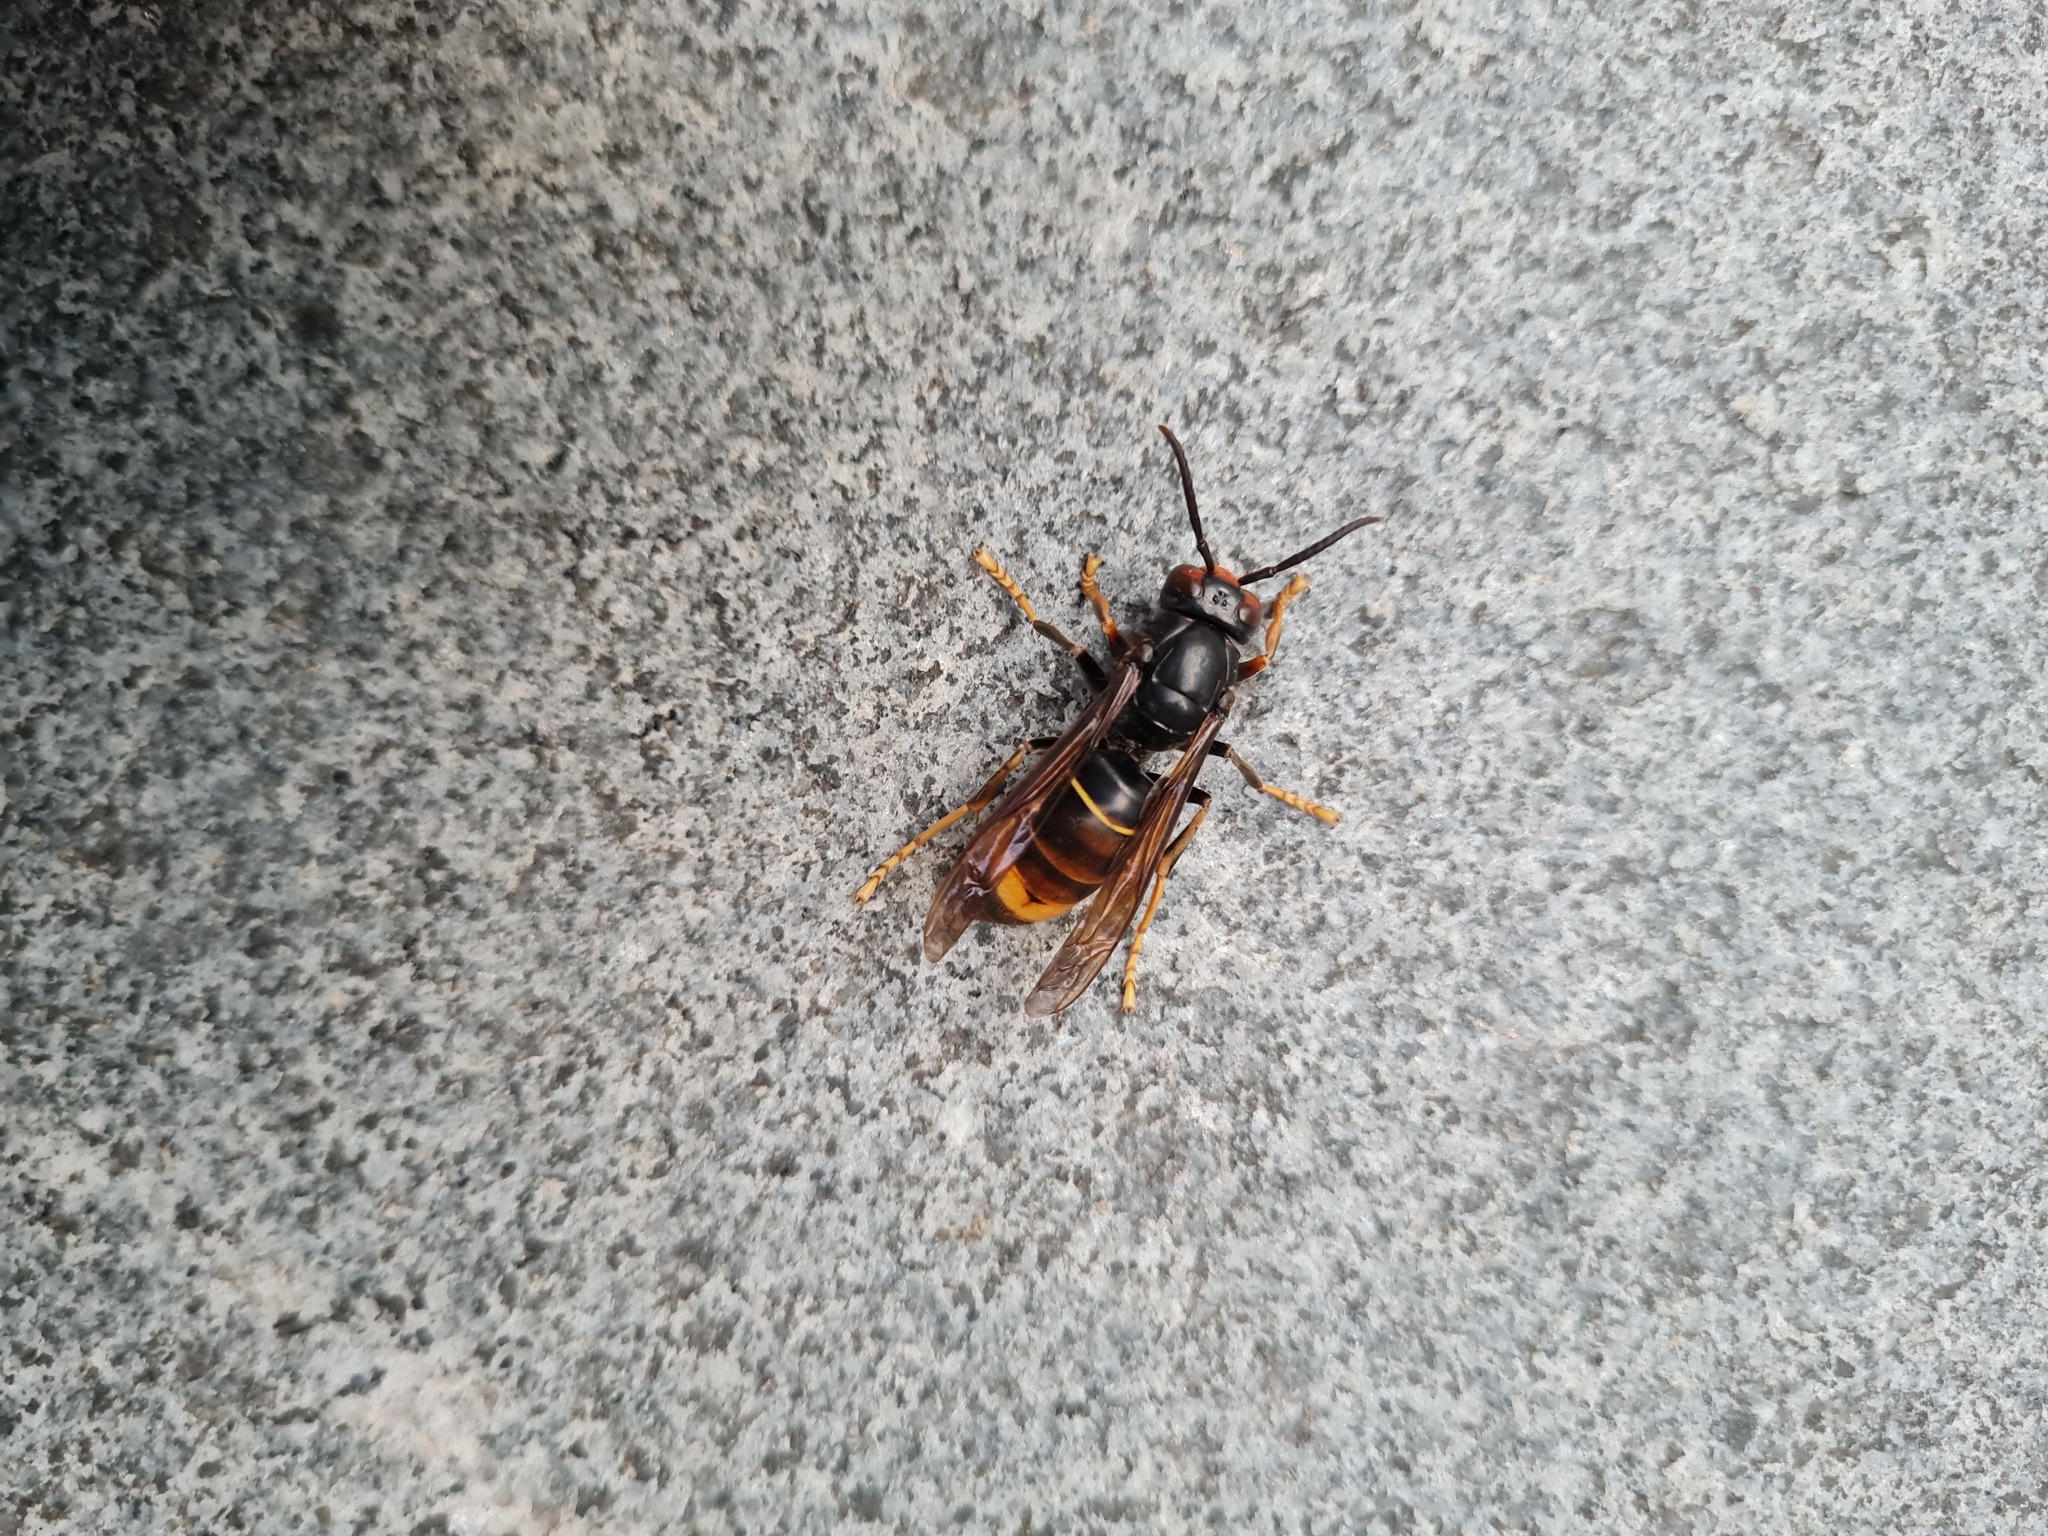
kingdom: Animalia
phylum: Arthropoda
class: Insecta
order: Hymenoptera
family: Vespidae
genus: Vespa
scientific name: Vespa velutina
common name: Asian hornet
